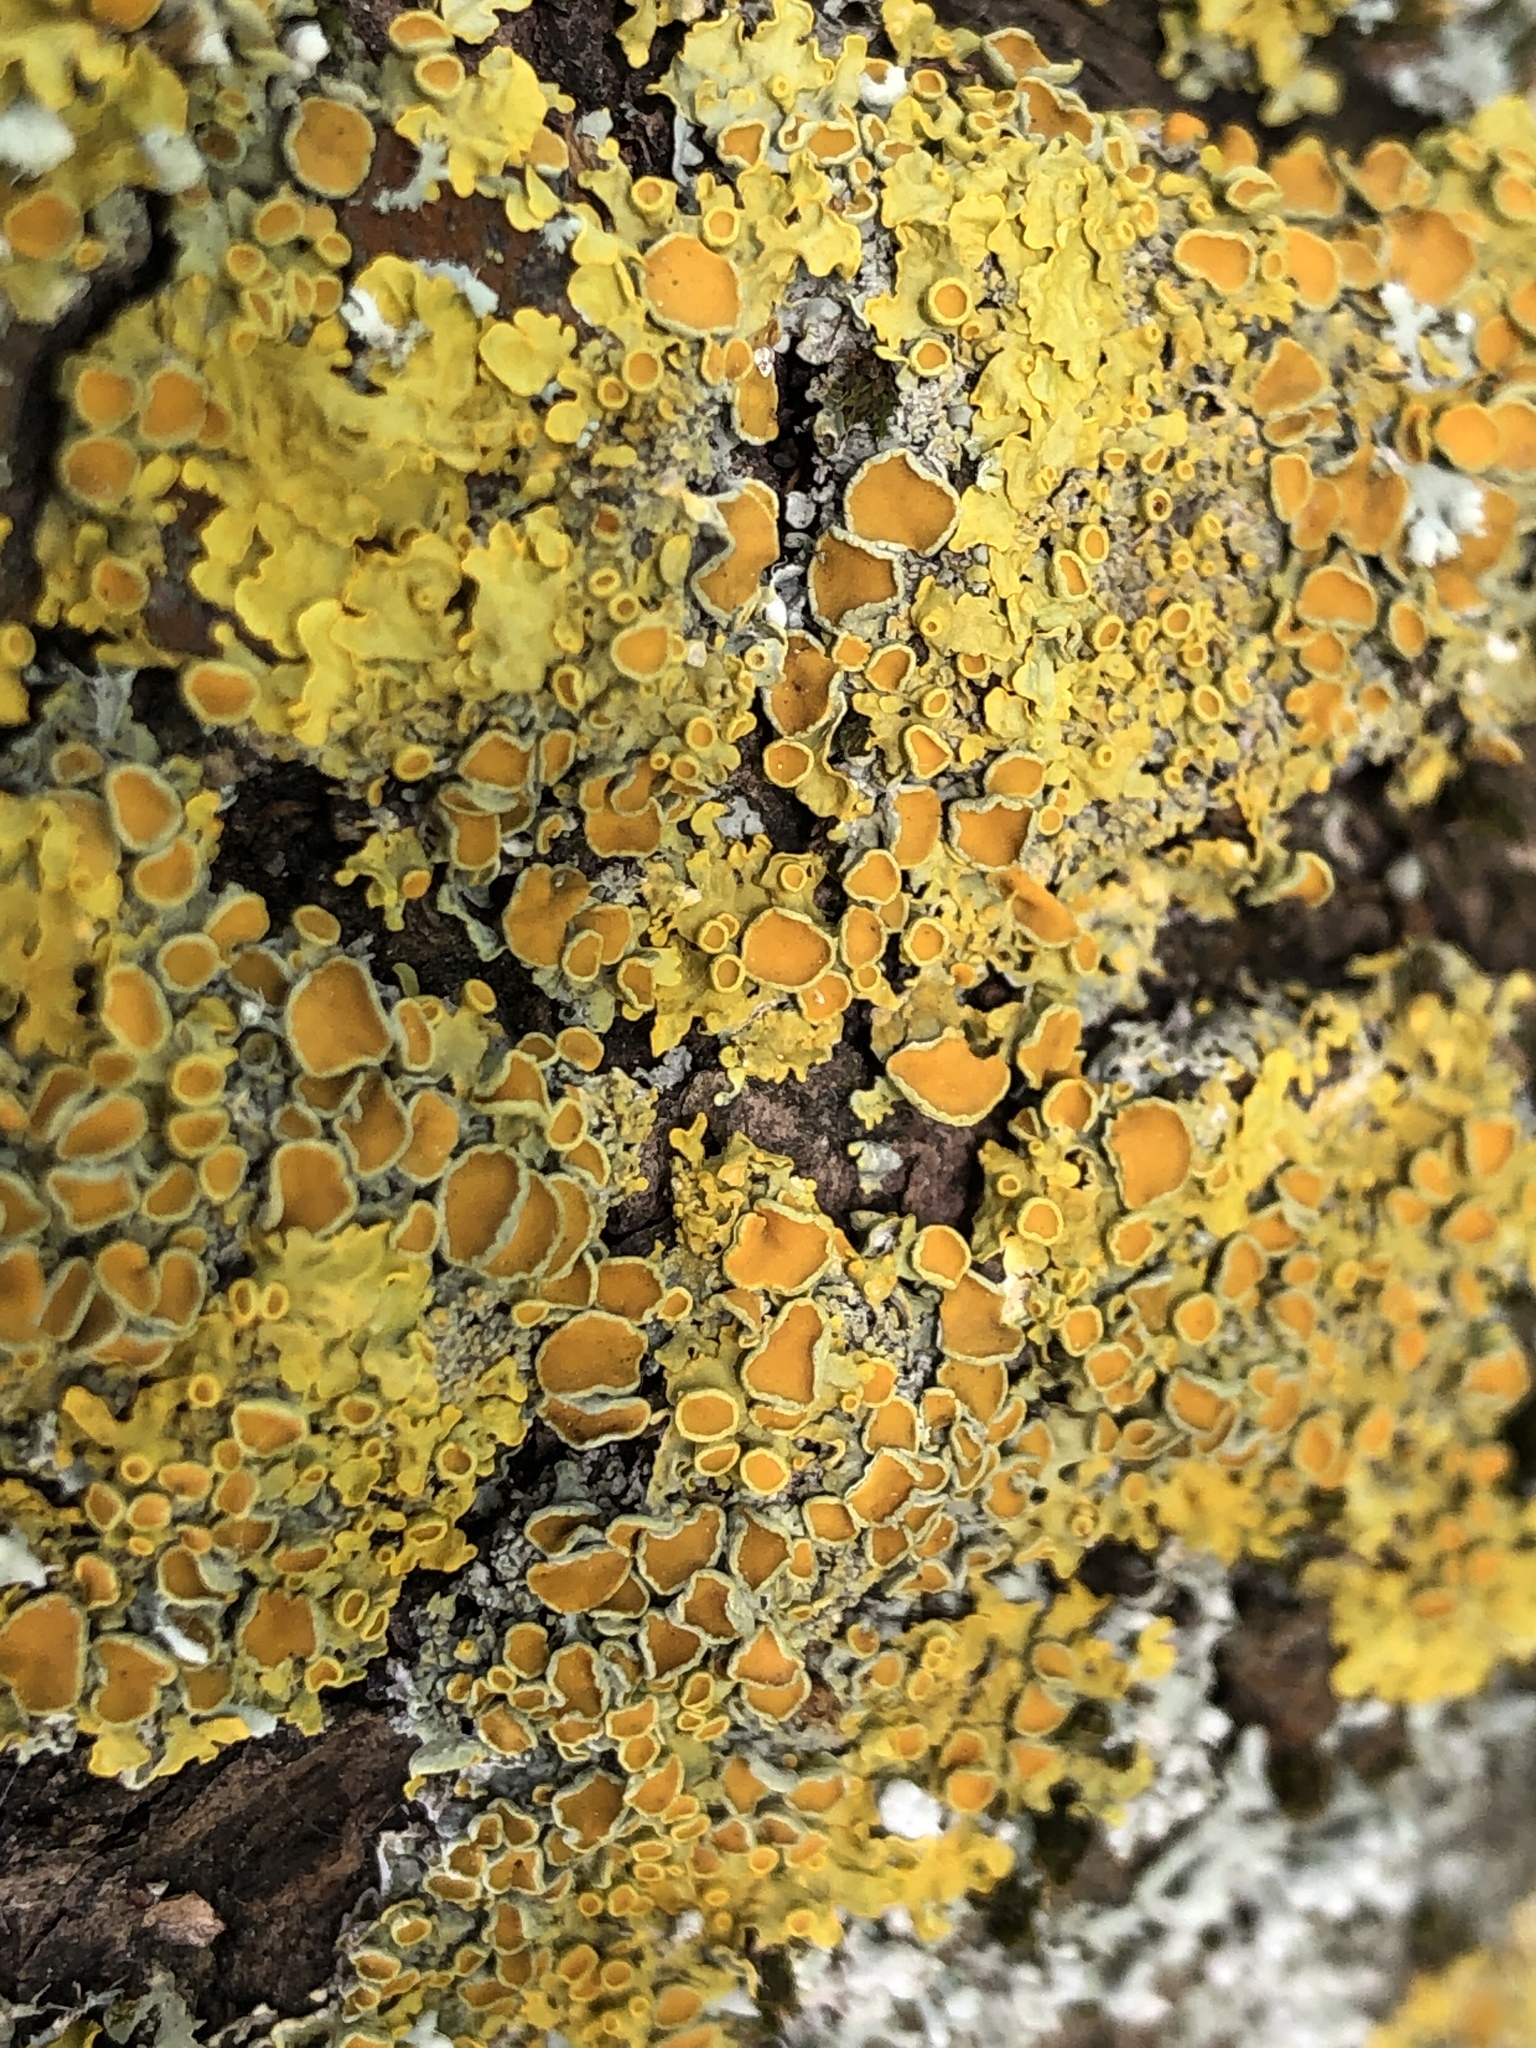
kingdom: Fungi
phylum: Ascomycota
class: Lecanoromycetes
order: Teloschistales
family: Teloschistaceae
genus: Xanthoria
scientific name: Xanthoria parietina
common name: Common orange lichen
